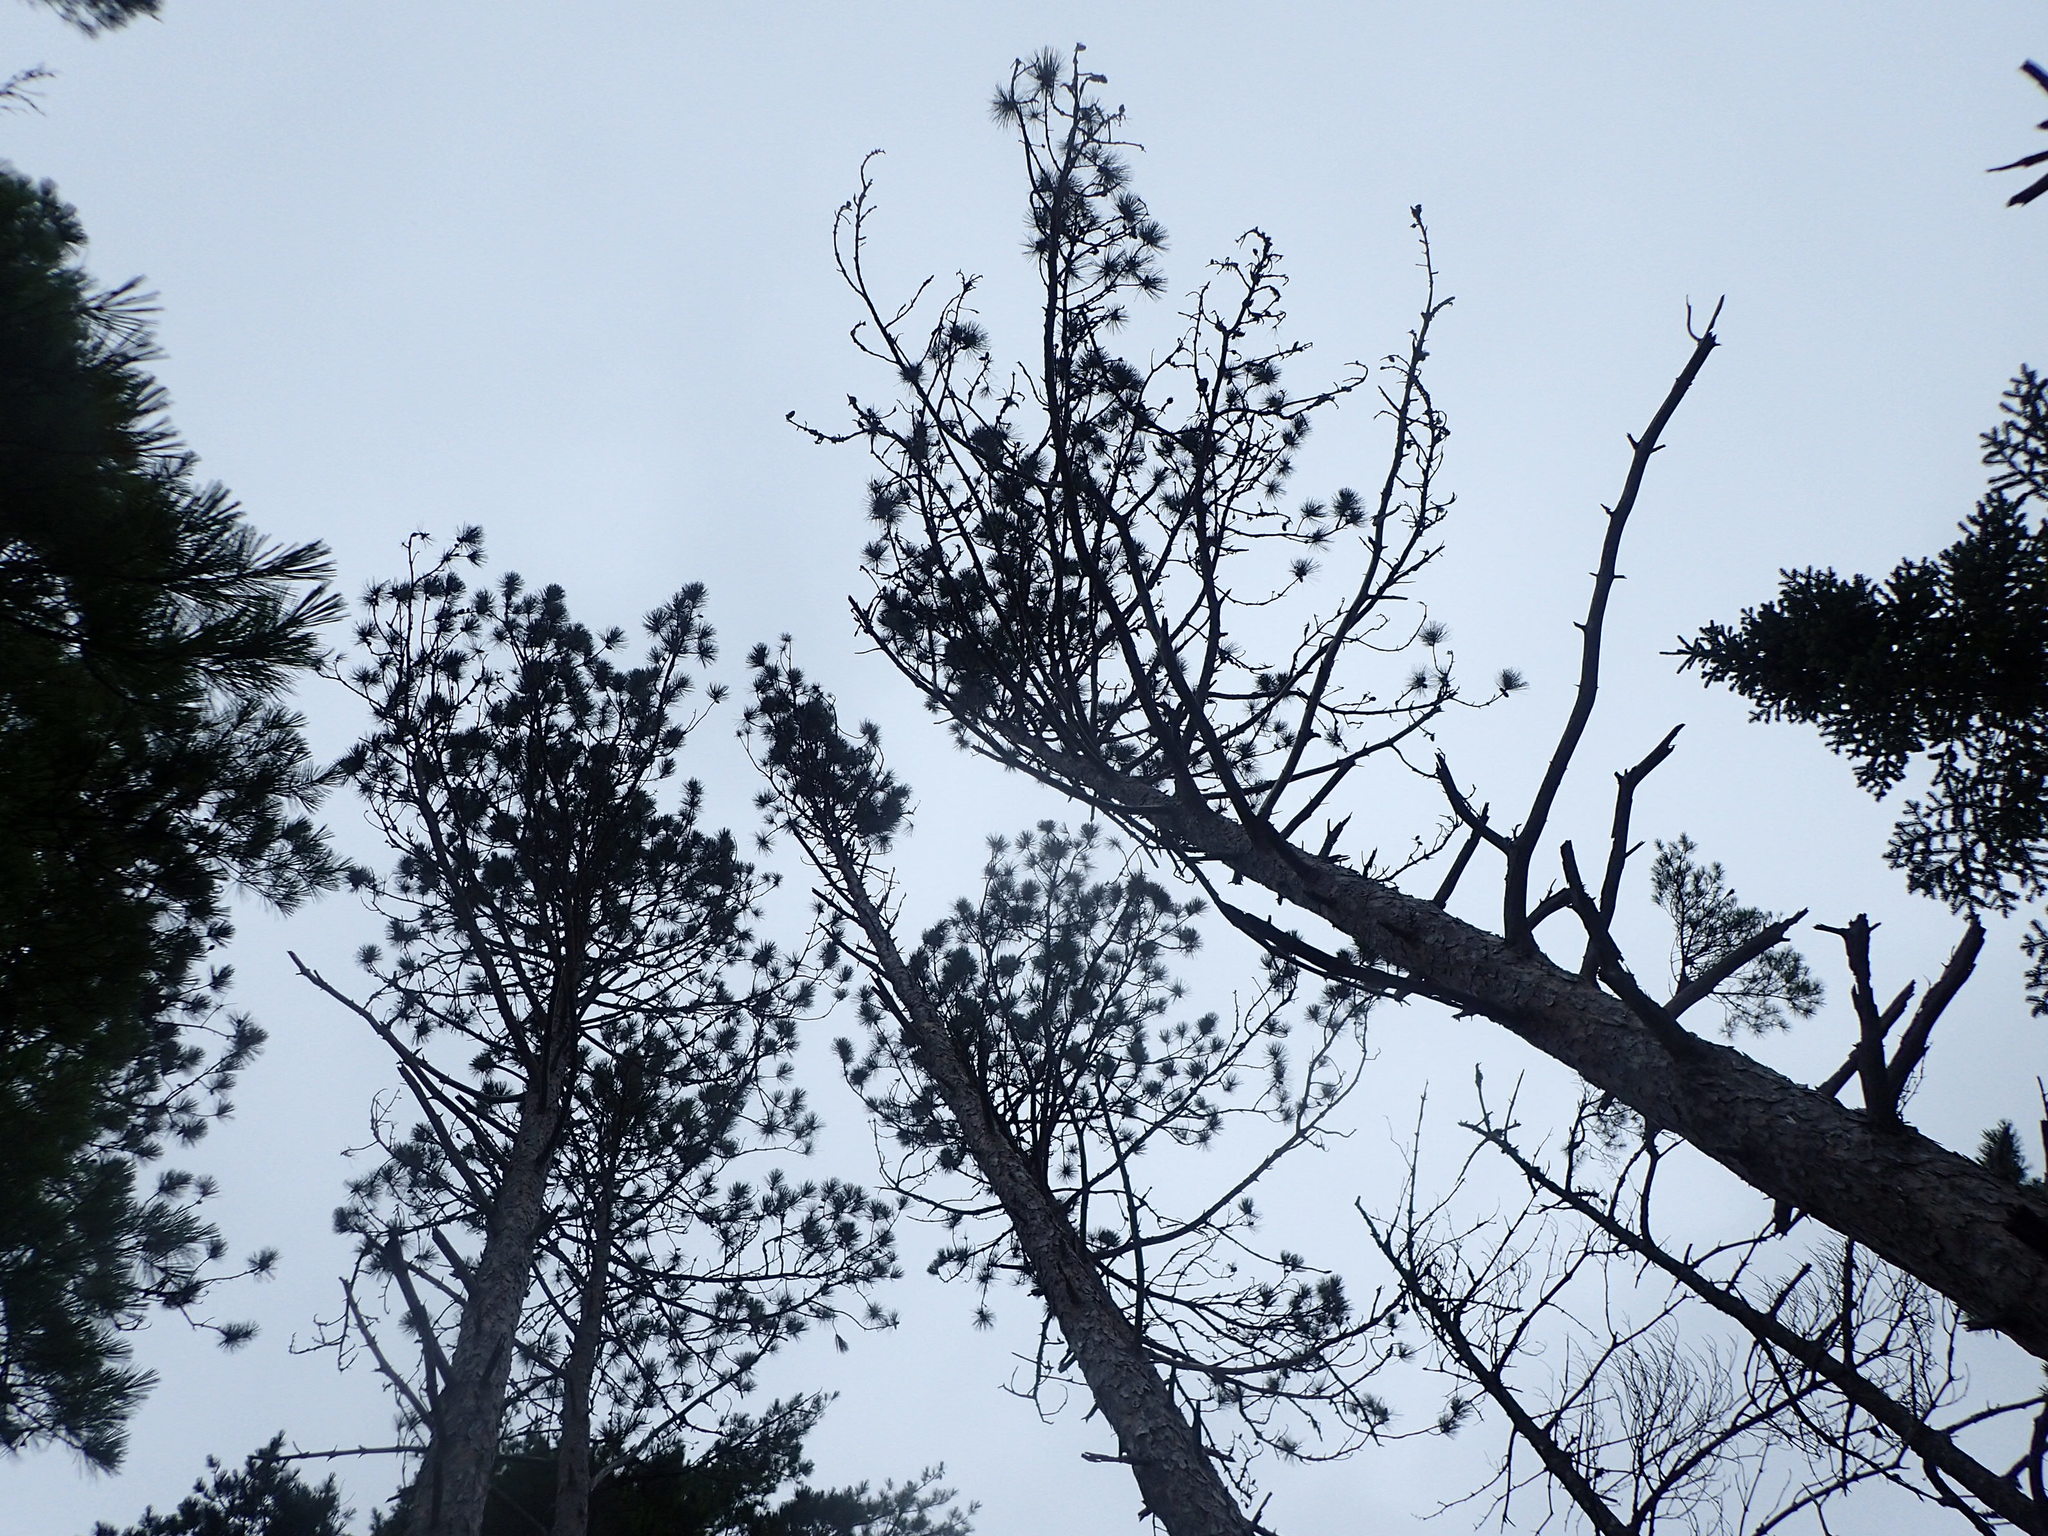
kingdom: Plantae
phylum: Tracheophyta
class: Pinopsida
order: Pinales
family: Pinaceae
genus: Pinus
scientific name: Pinus resinosa
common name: Norway pine
